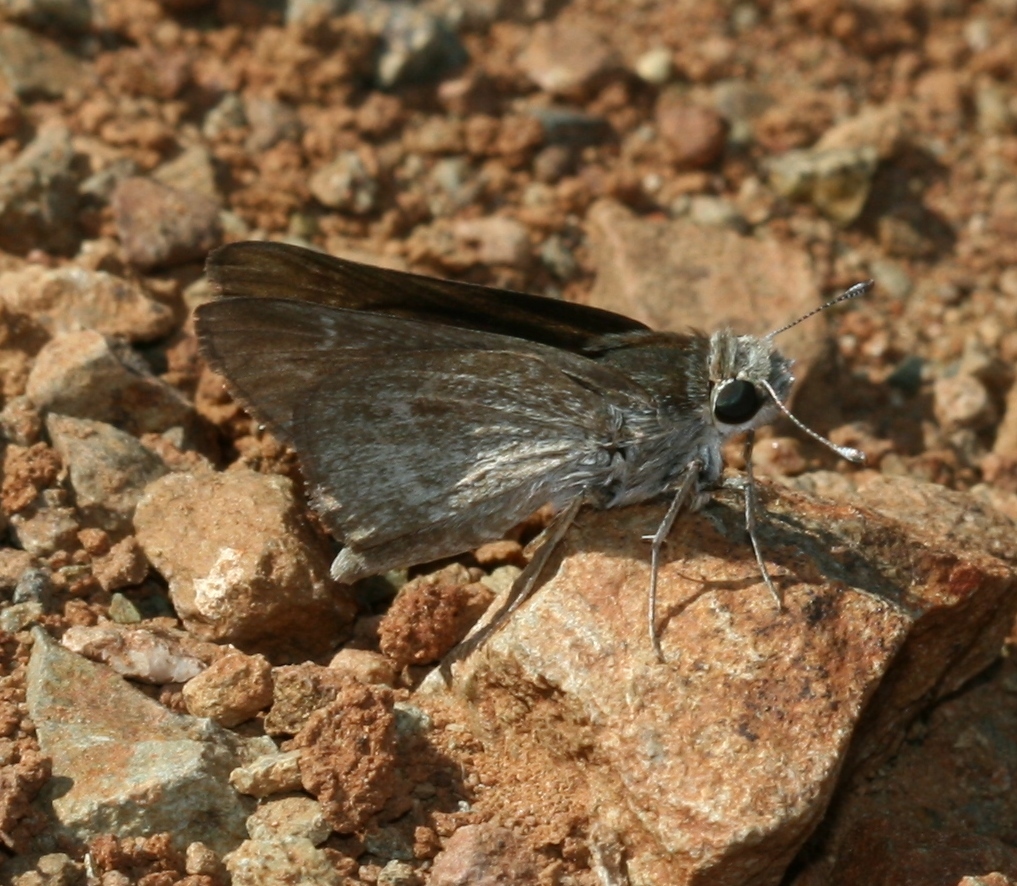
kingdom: Animalia
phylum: Arthropoda
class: Insecta
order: Lepidoptera
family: Hesperiidae
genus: Gegenes
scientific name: Gegenes pumilio
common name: Pigmy skipper
